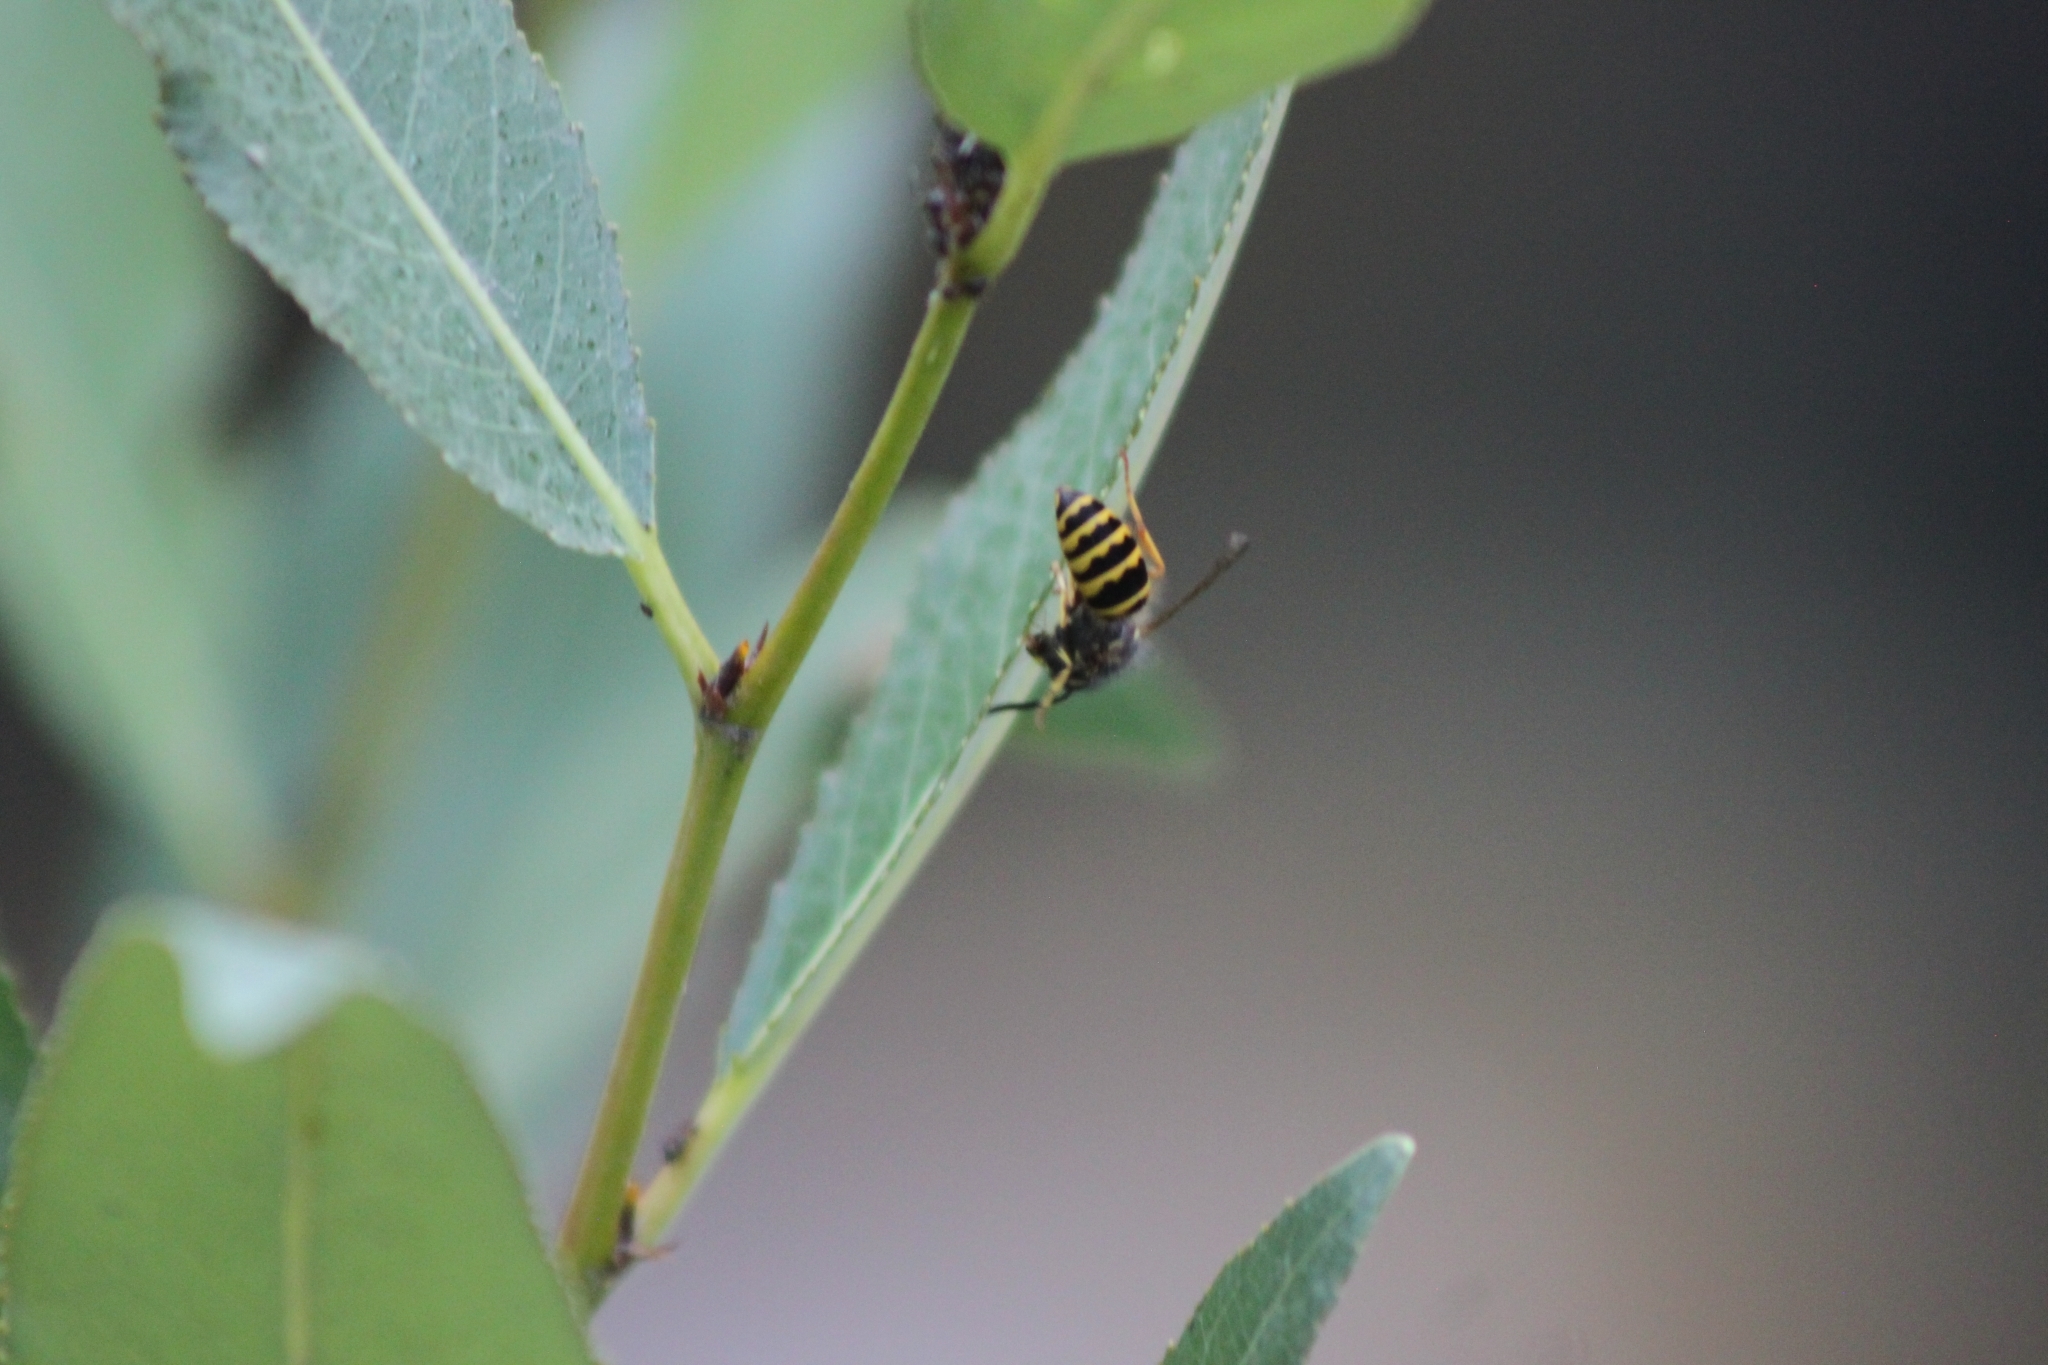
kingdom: Animalia
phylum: Arthropoda
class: Insecta
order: Hymenoptera
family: Vespidae
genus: Vespula
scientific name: Vespula alascensis
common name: Alaska yellowjacket
